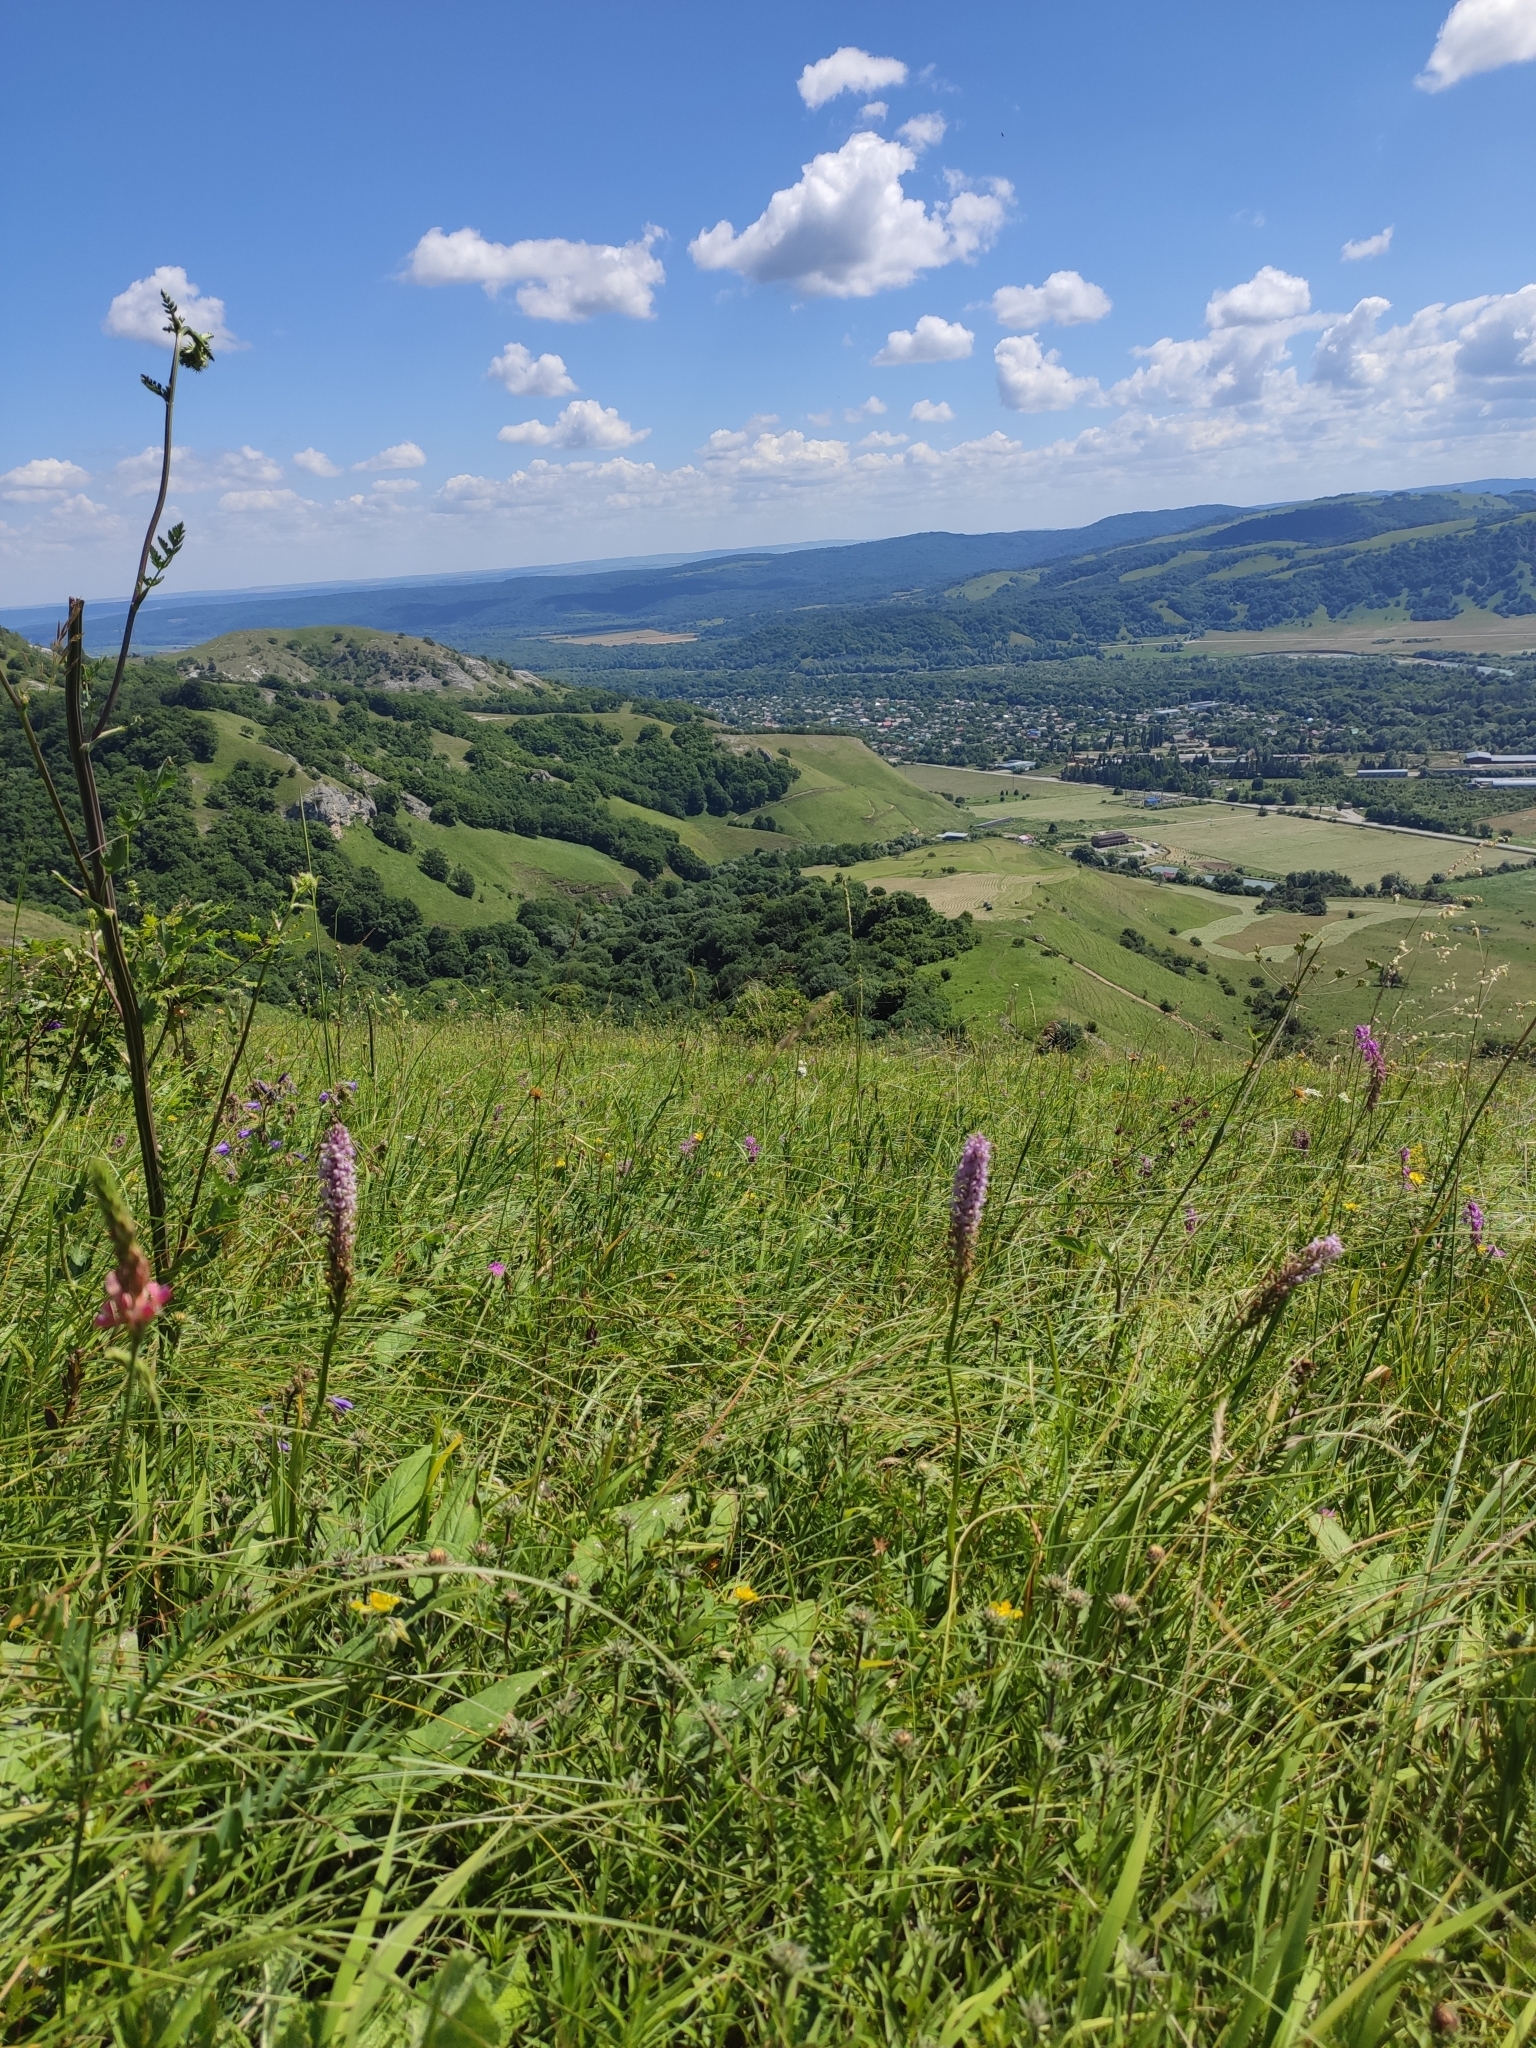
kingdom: Plantae
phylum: Tracheophyta
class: Liliopsida
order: Asparagales
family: Orchidaceae
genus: Gymnadenia
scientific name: Gymnadenia conopsea
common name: Fragrant orchid
